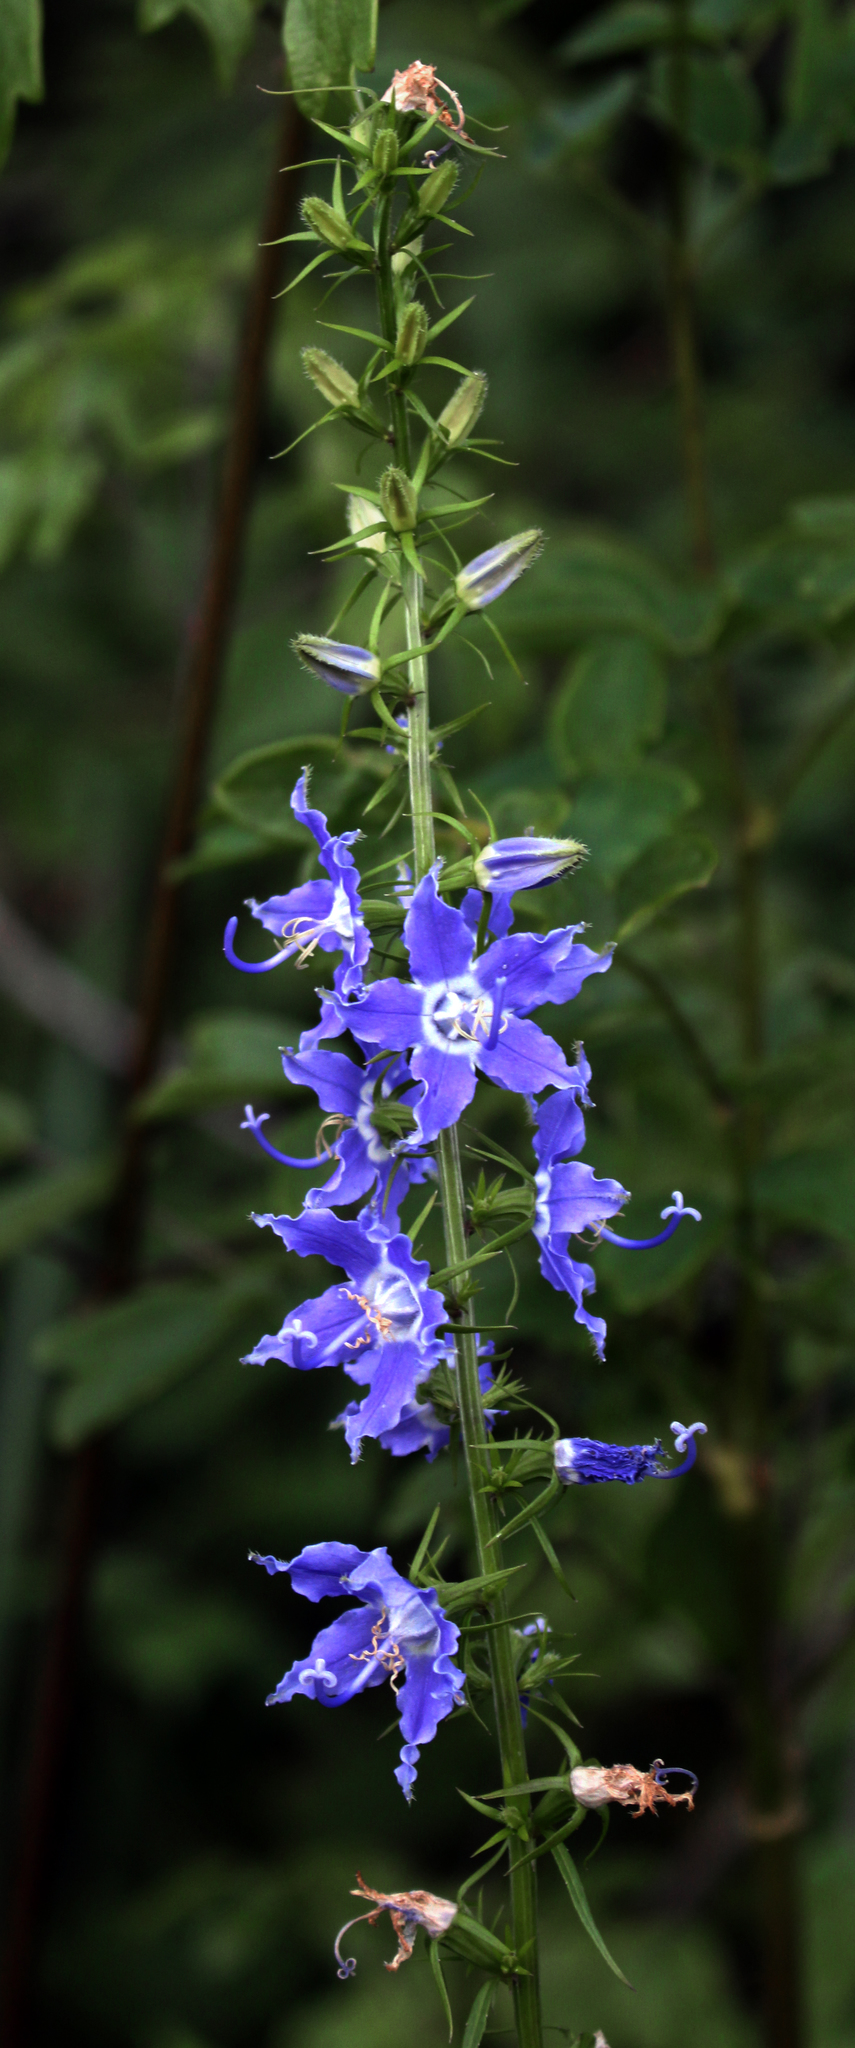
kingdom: Plantae
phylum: Tracheophyta
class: Magnoliopsida
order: Asterales
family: Campanulaceae
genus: Campanulastrum
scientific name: Campanulastrum americanum
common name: American bellflower
